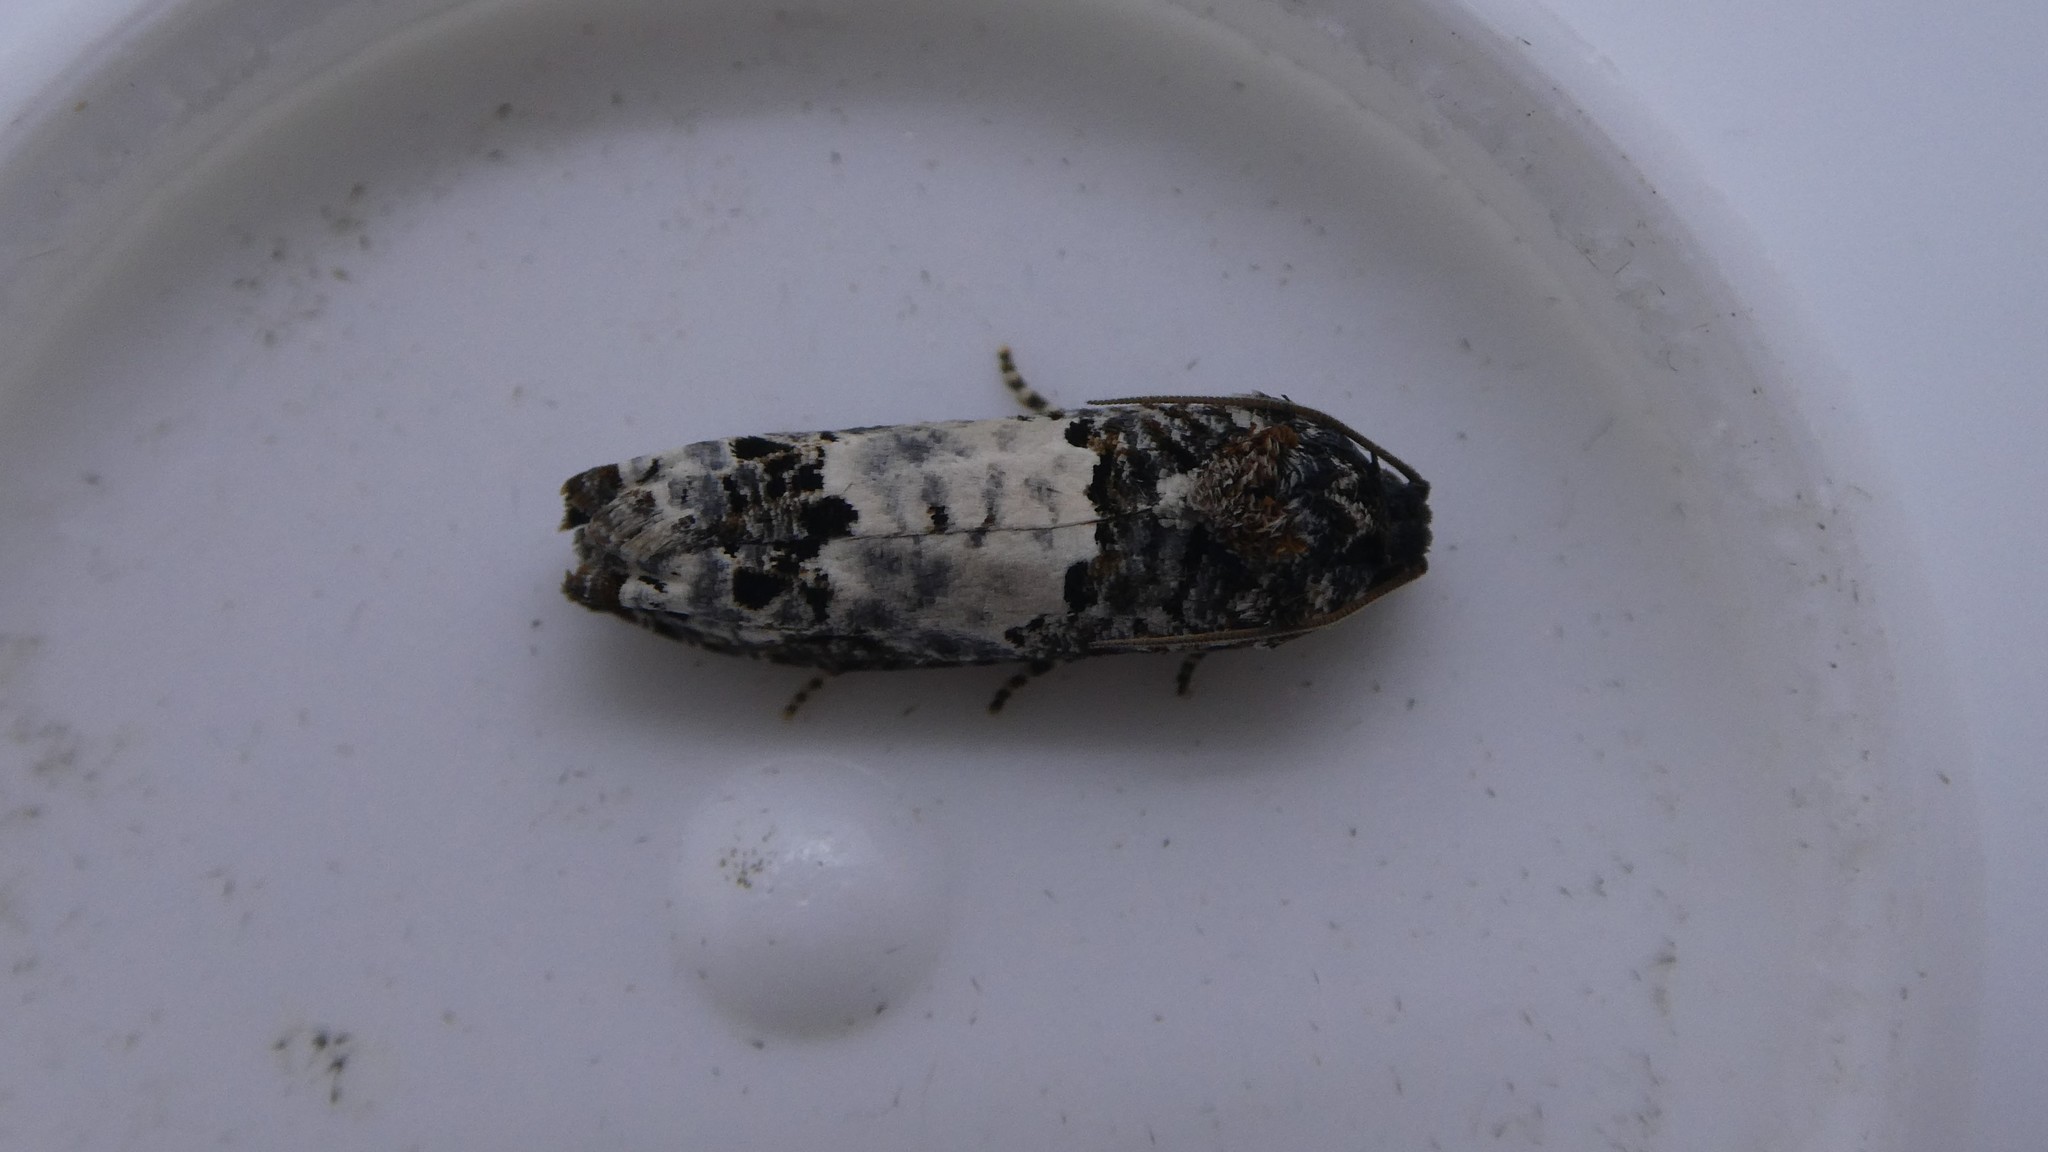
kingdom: Animalia
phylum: Arthropoda
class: Insecta
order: Lepidoptera
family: Tortricidae
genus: Epiblema
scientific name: Epiblema carolinana
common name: Gray-blotched epiblema moth
